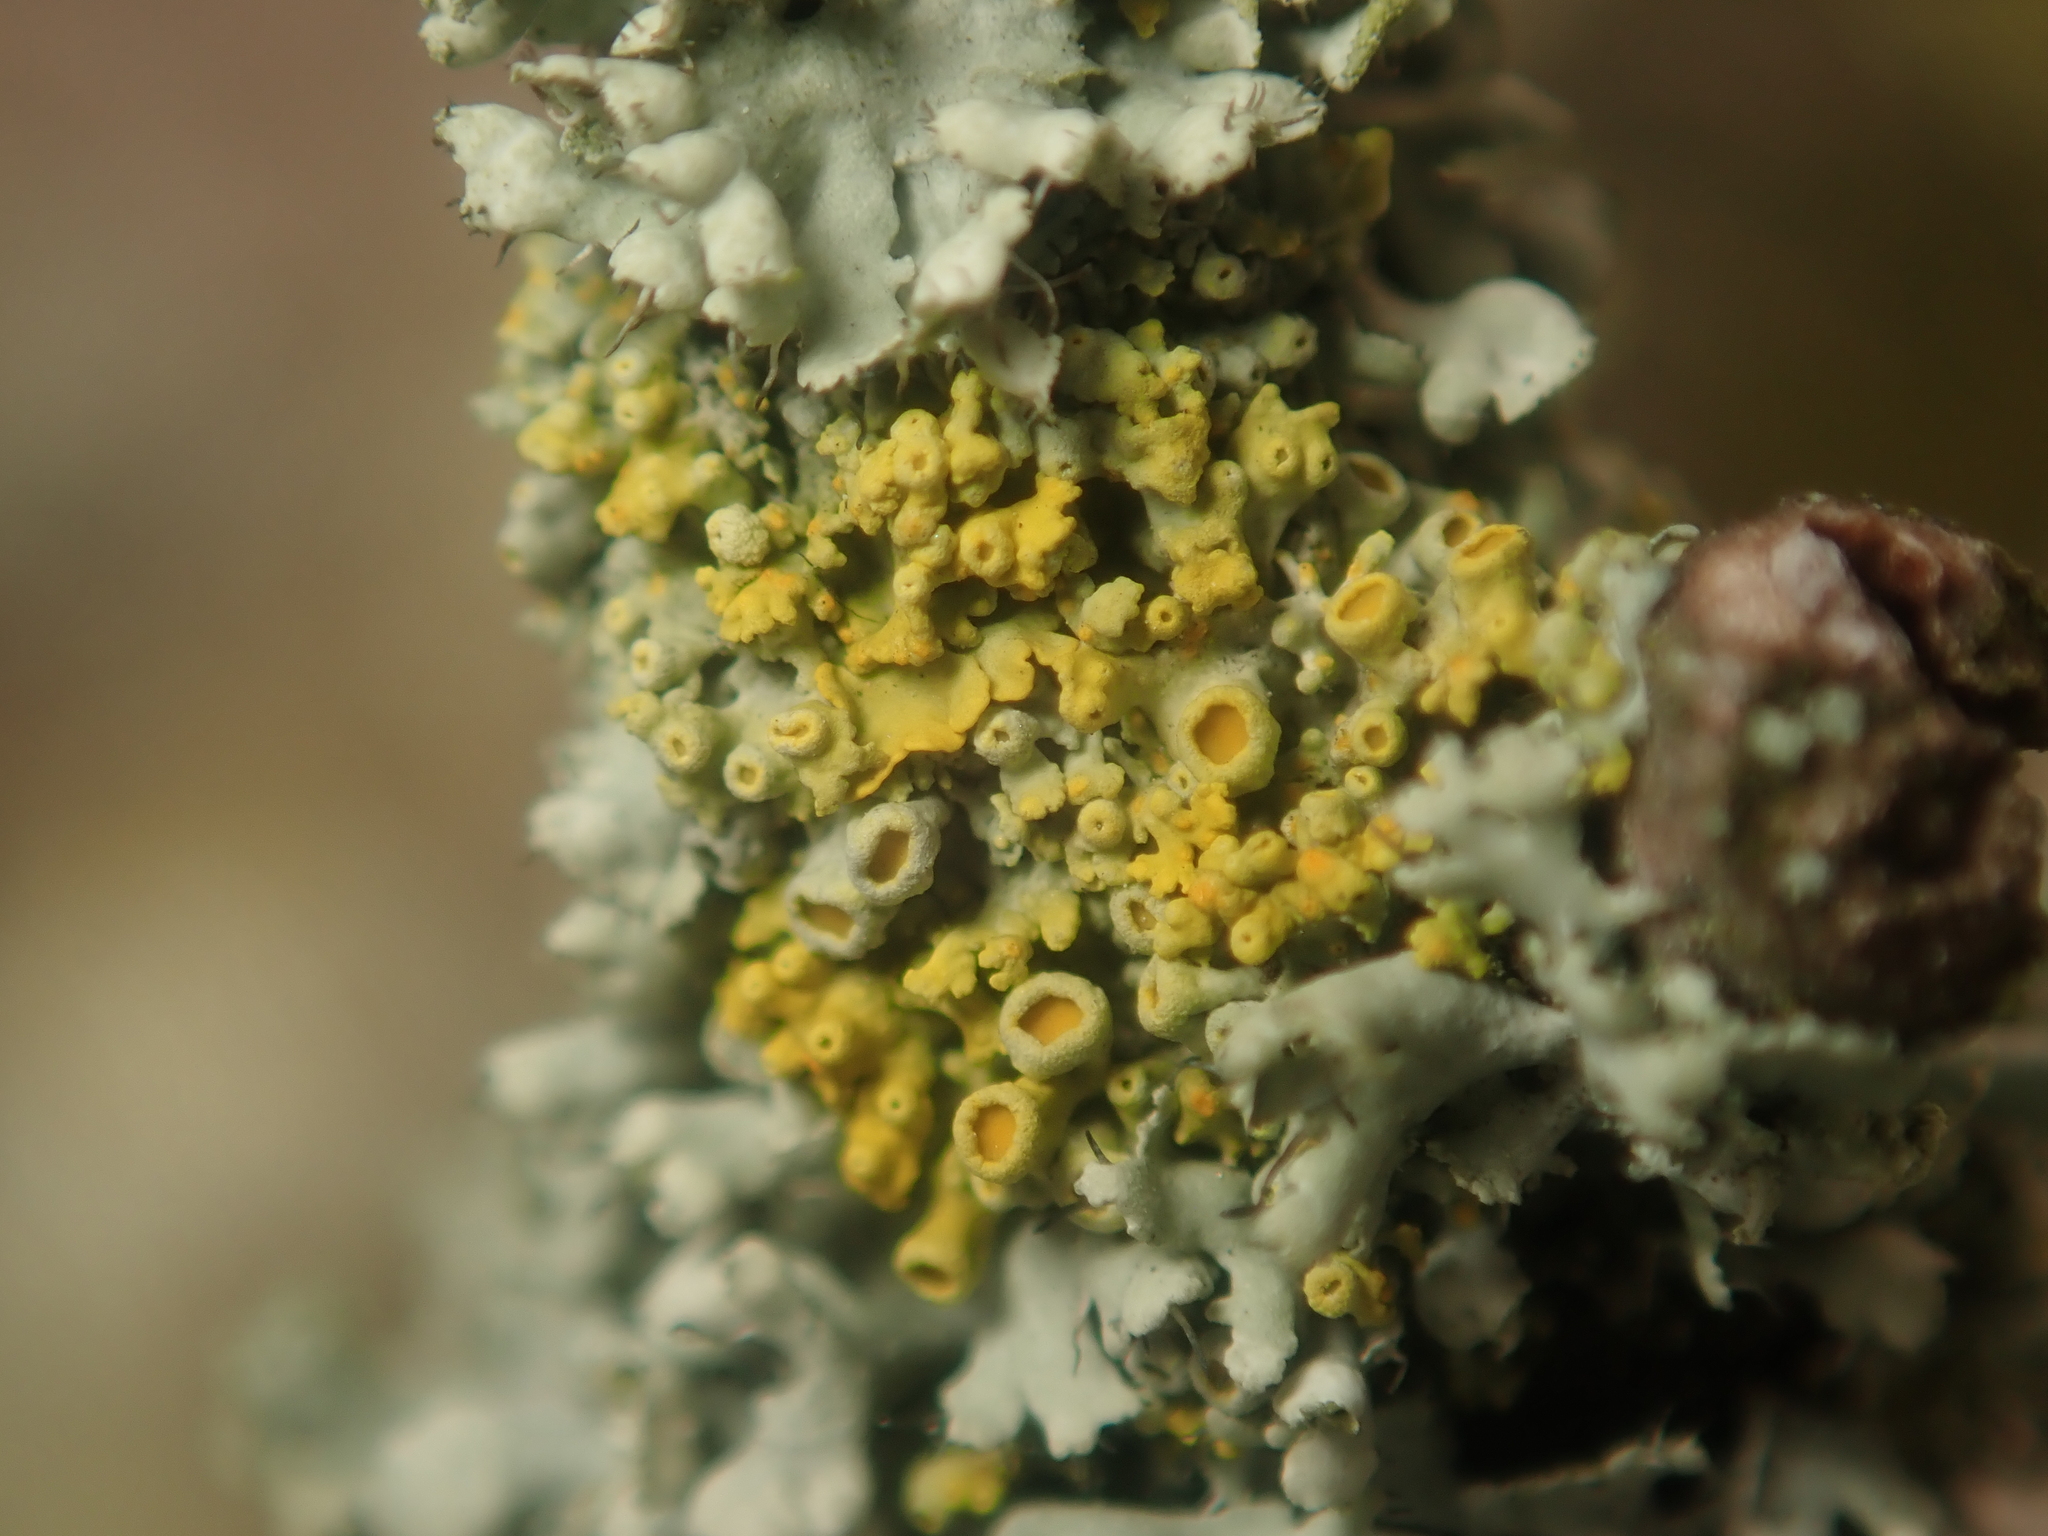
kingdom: Fungi
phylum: Ascomycota
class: Lecanoromycetes
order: Teloschistales
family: Teloschistaceae
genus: Polycauliona
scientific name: Polycauliona polycarpa
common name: Pin-cushion sunburst lichen
